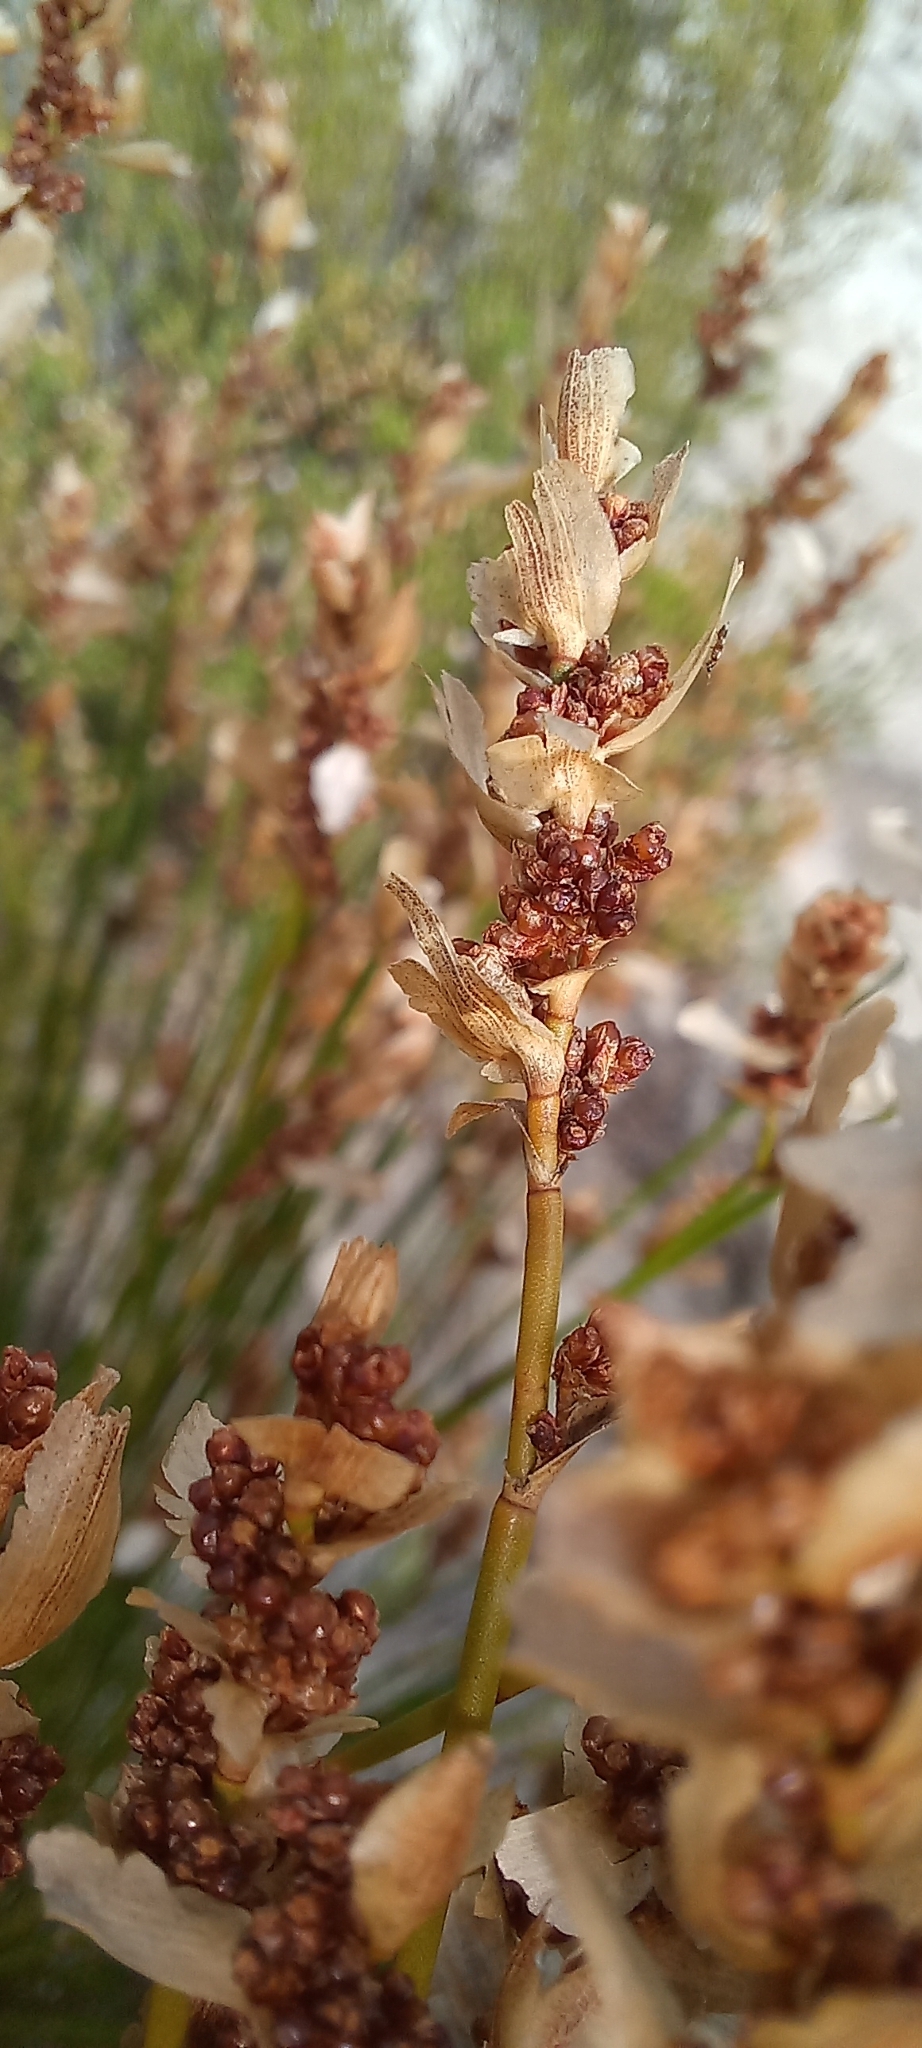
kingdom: Plantae
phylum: Tracheophyta
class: Liliopsida
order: Poales
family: Restionaceae
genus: Elegia
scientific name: Elegia filacea
